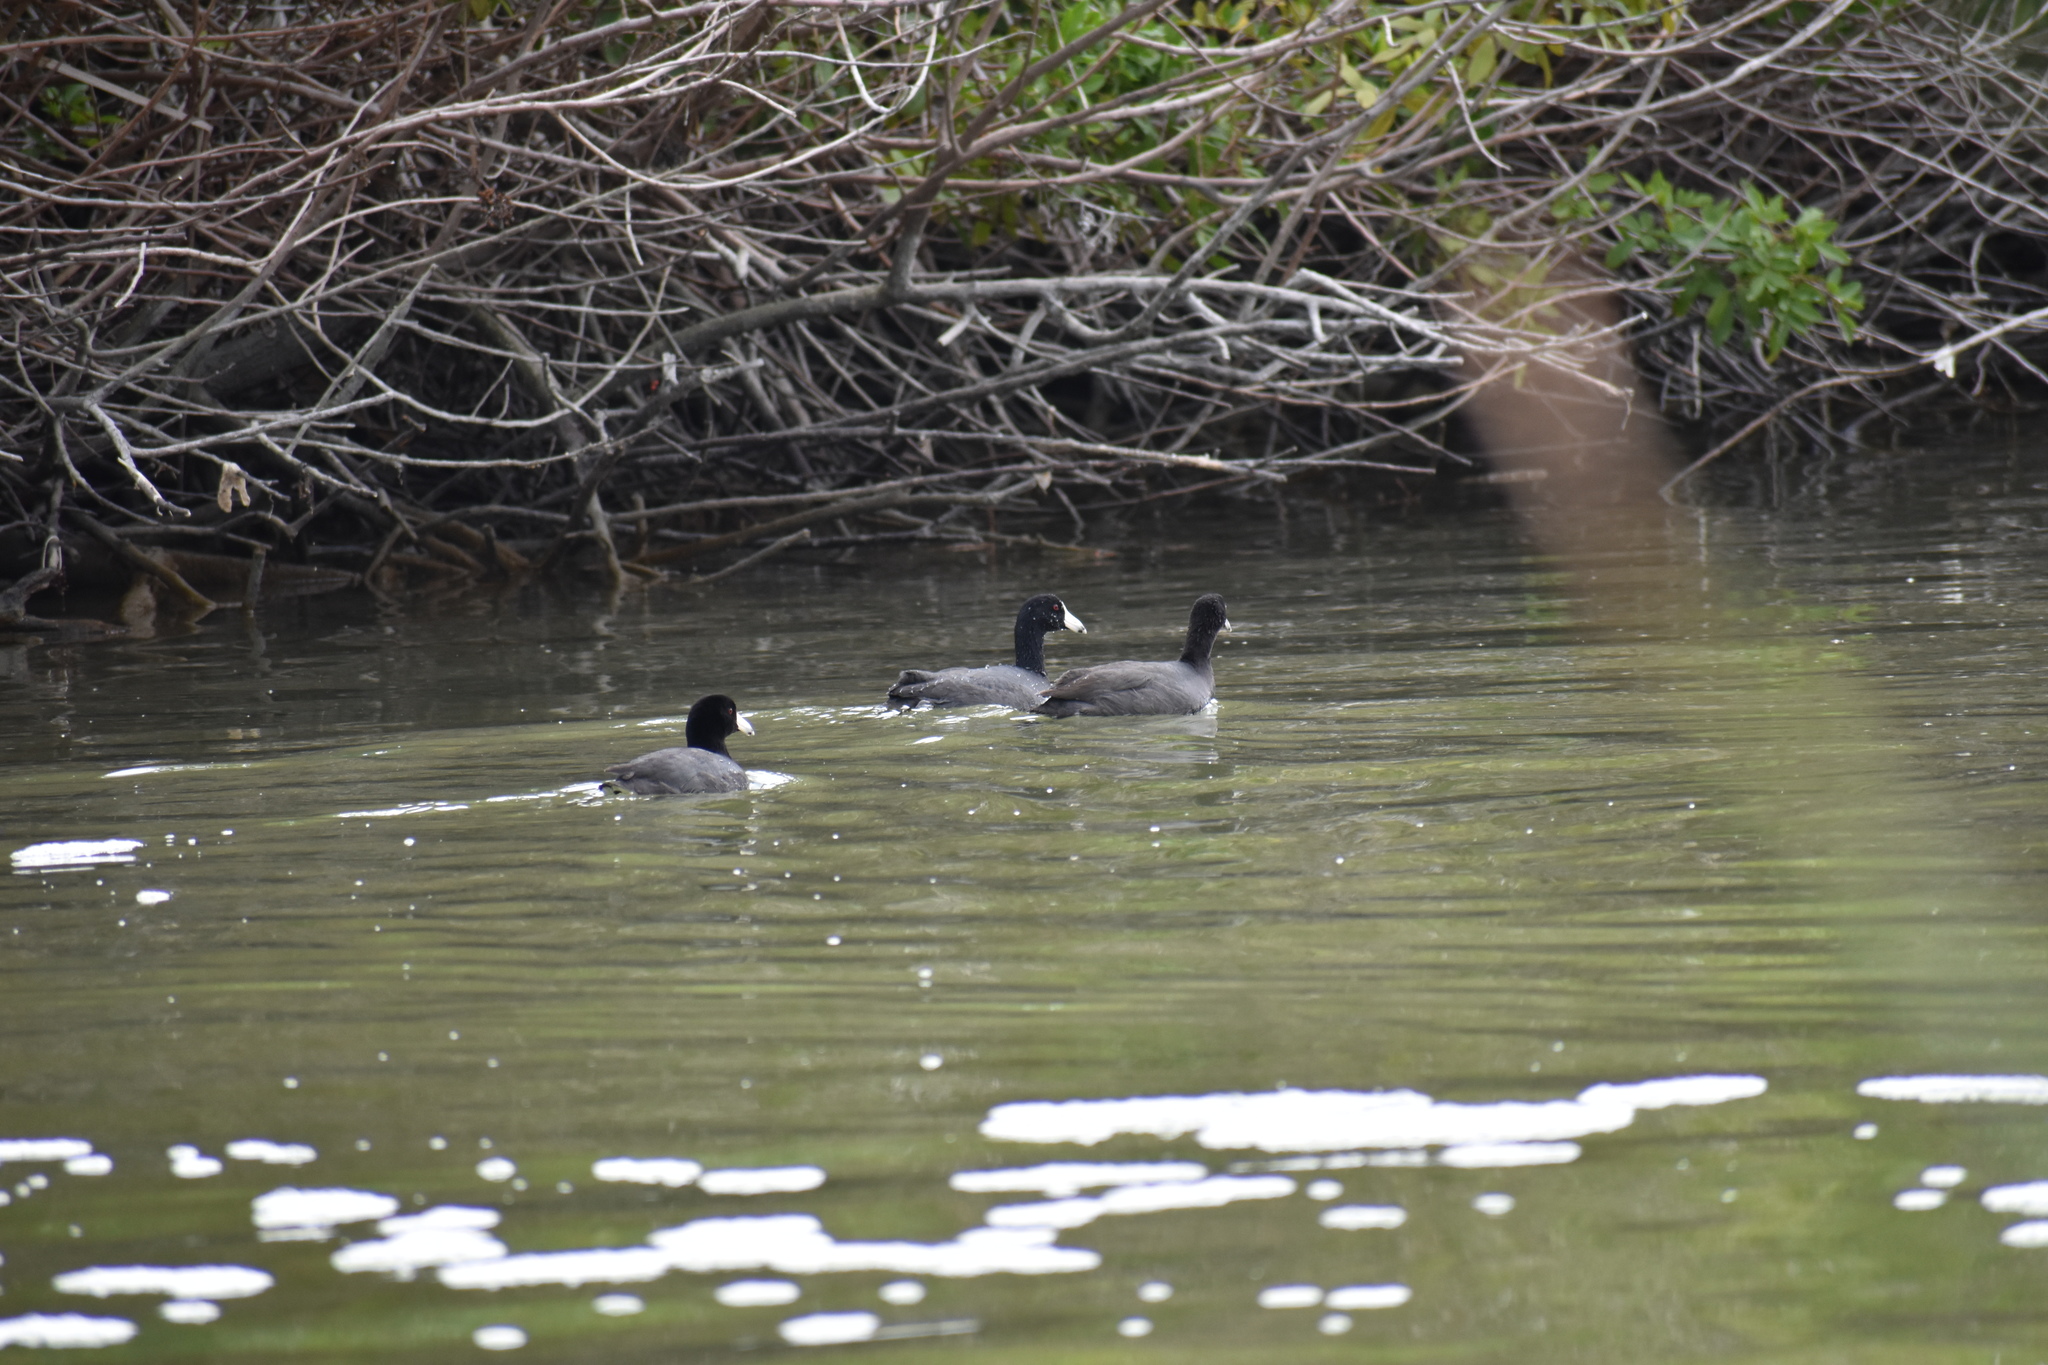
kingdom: Animalia
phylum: Chordata
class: Aves
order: Gruiformes
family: Rallidae
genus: Fulica
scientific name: Fulica americana
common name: American coot
